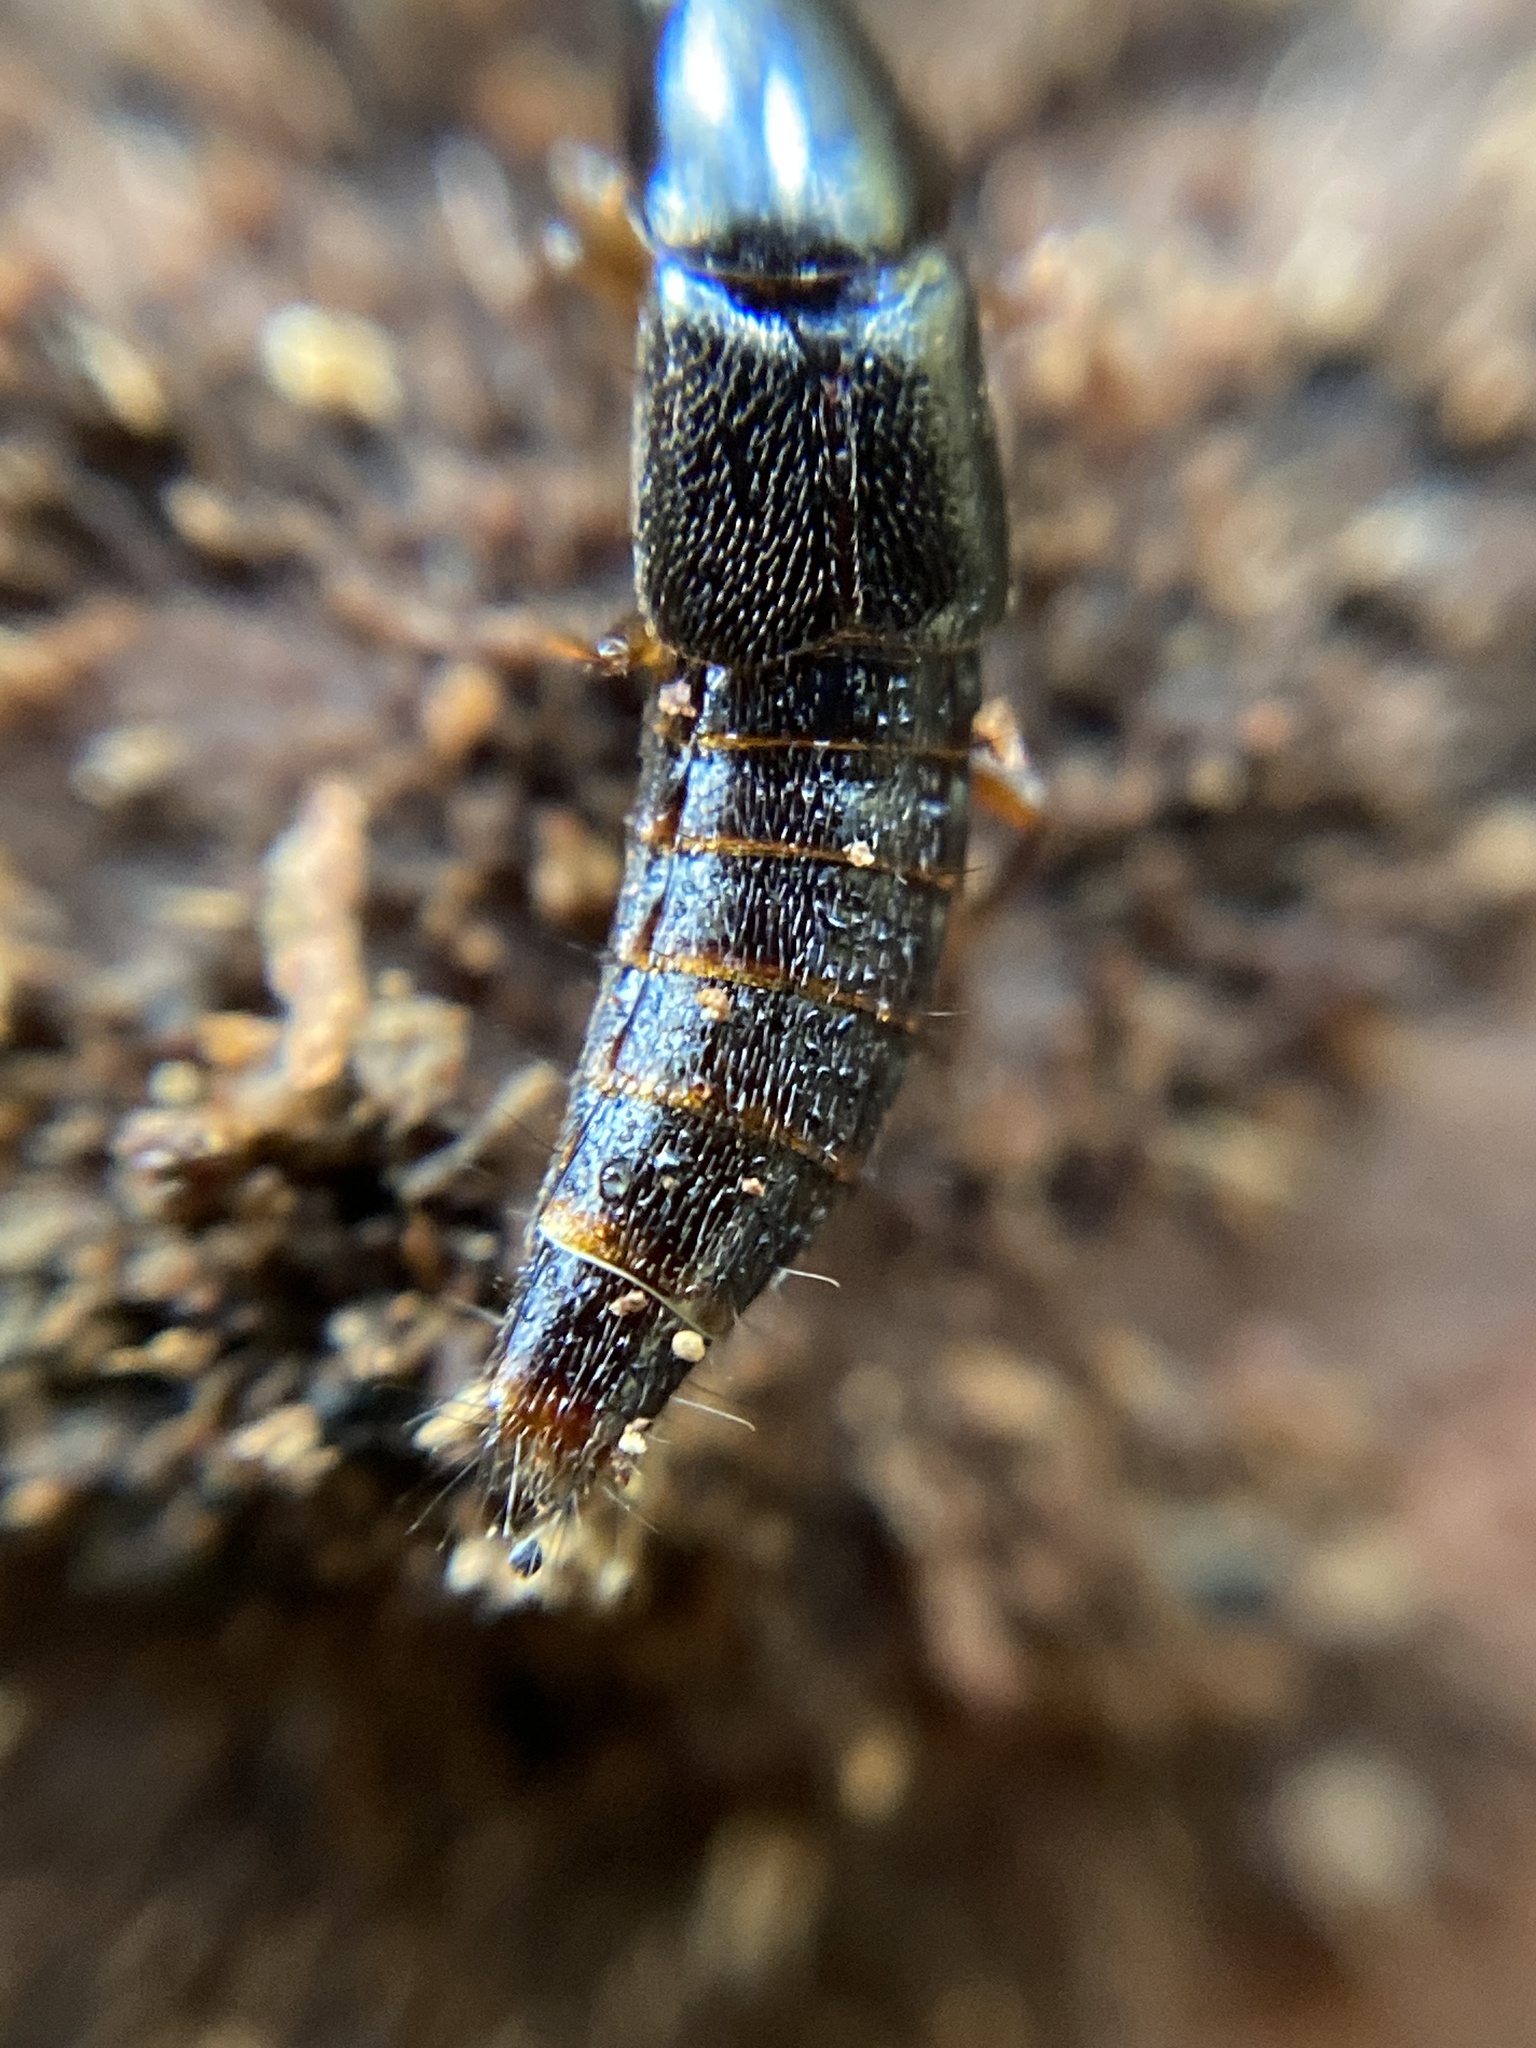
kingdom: Animalia
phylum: Arthropoda
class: Insecta
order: Coleoptera
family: Staphylinidae
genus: Quedius
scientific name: Quedius xanthopus
